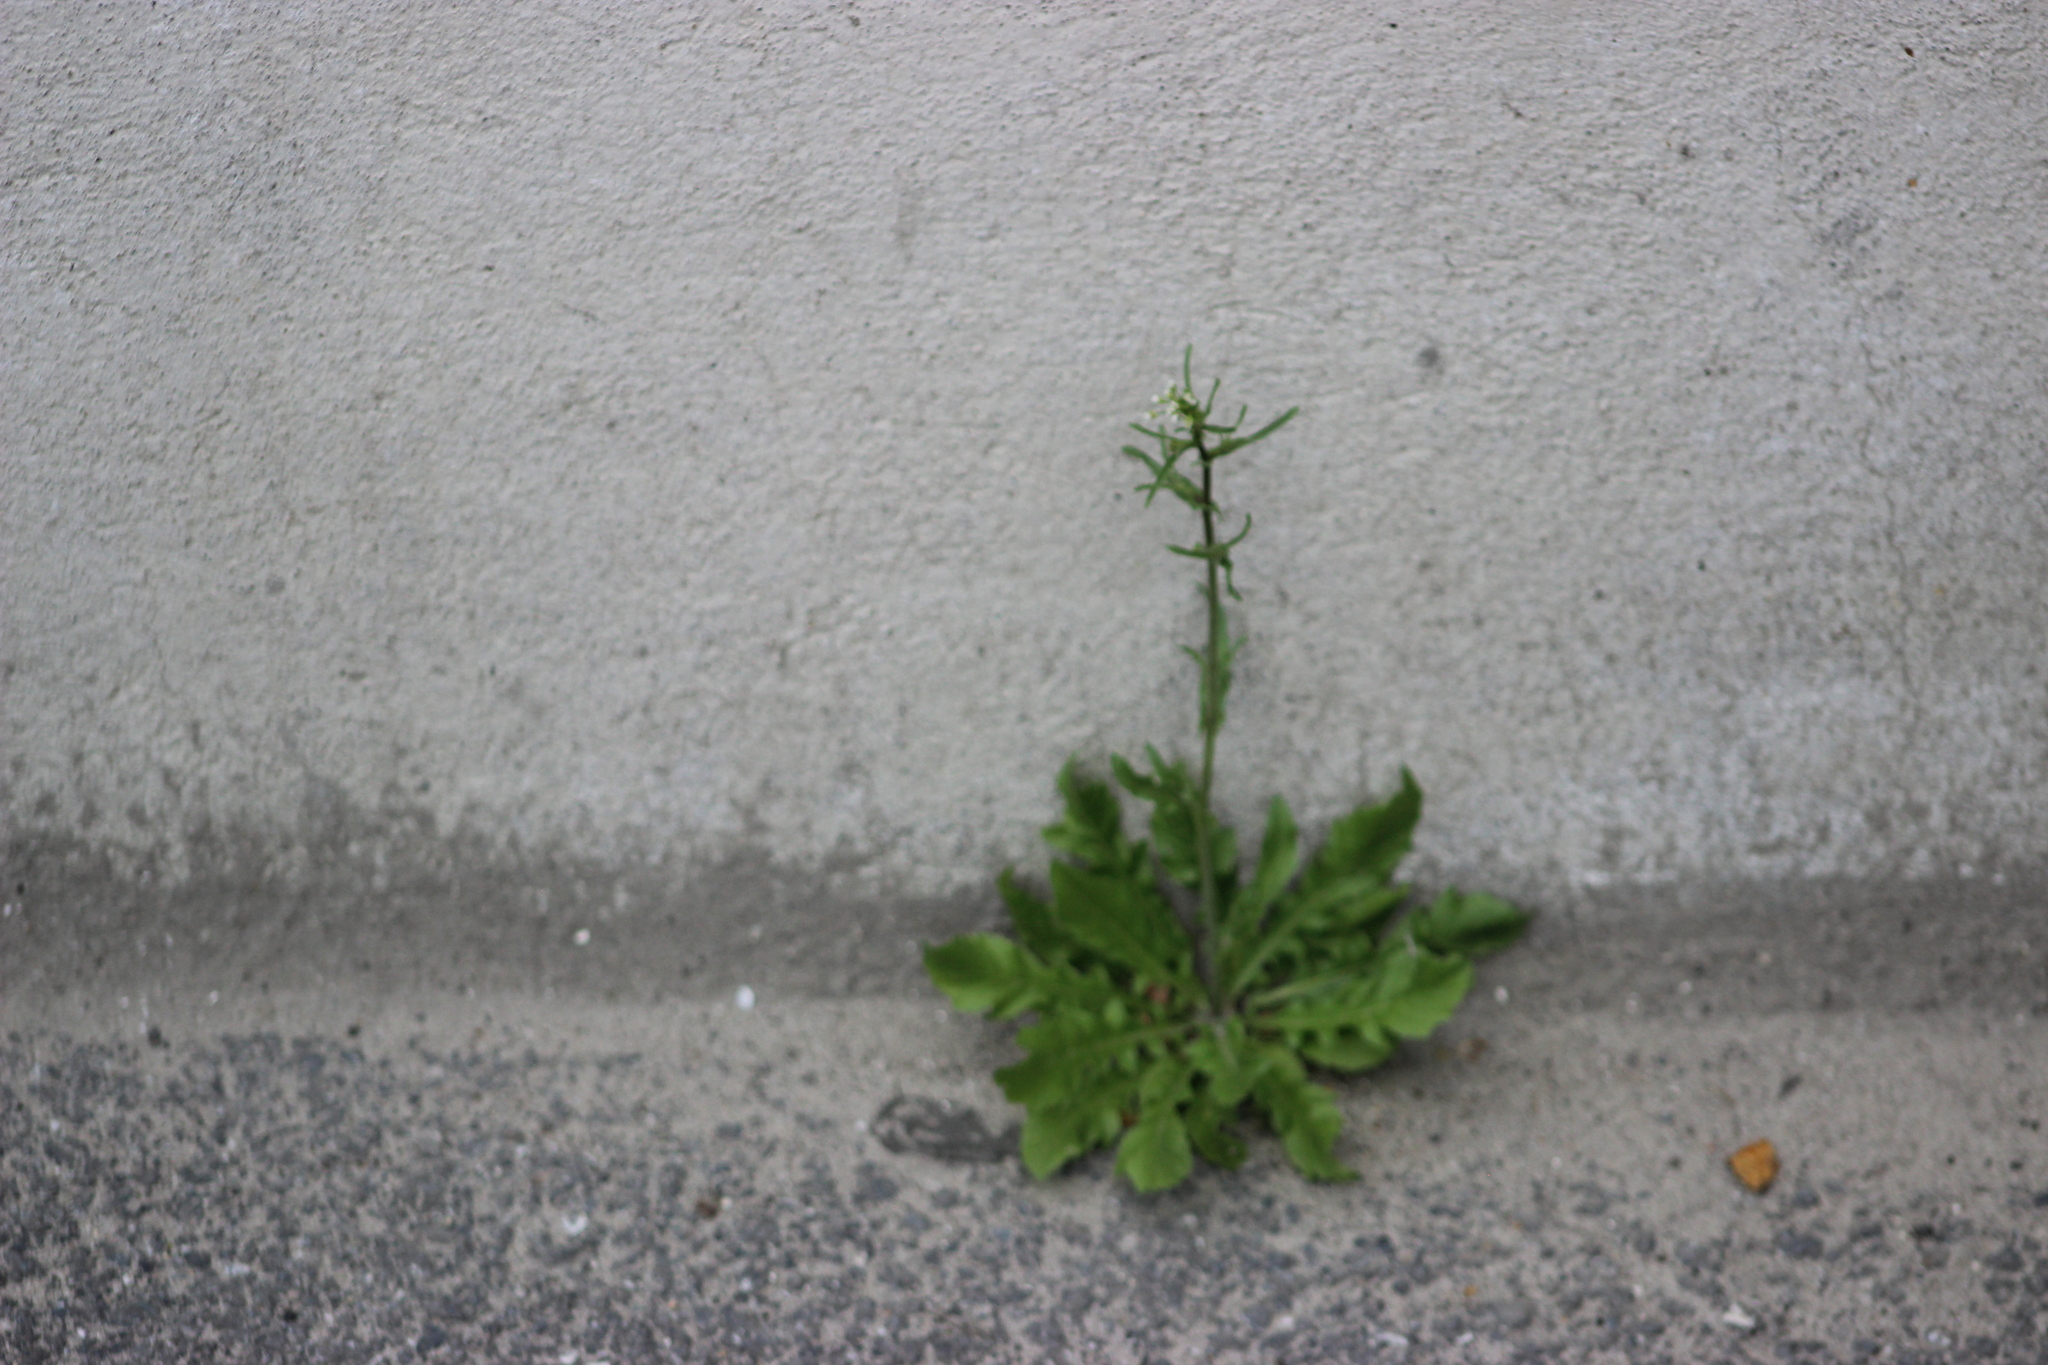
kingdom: Plantae
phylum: Tracheophyta
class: Magnoliopsida
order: Brassicales
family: Brassicaceae
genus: Capsella
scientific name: Capsella bursa-pastoris
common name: Shepherd's purse
